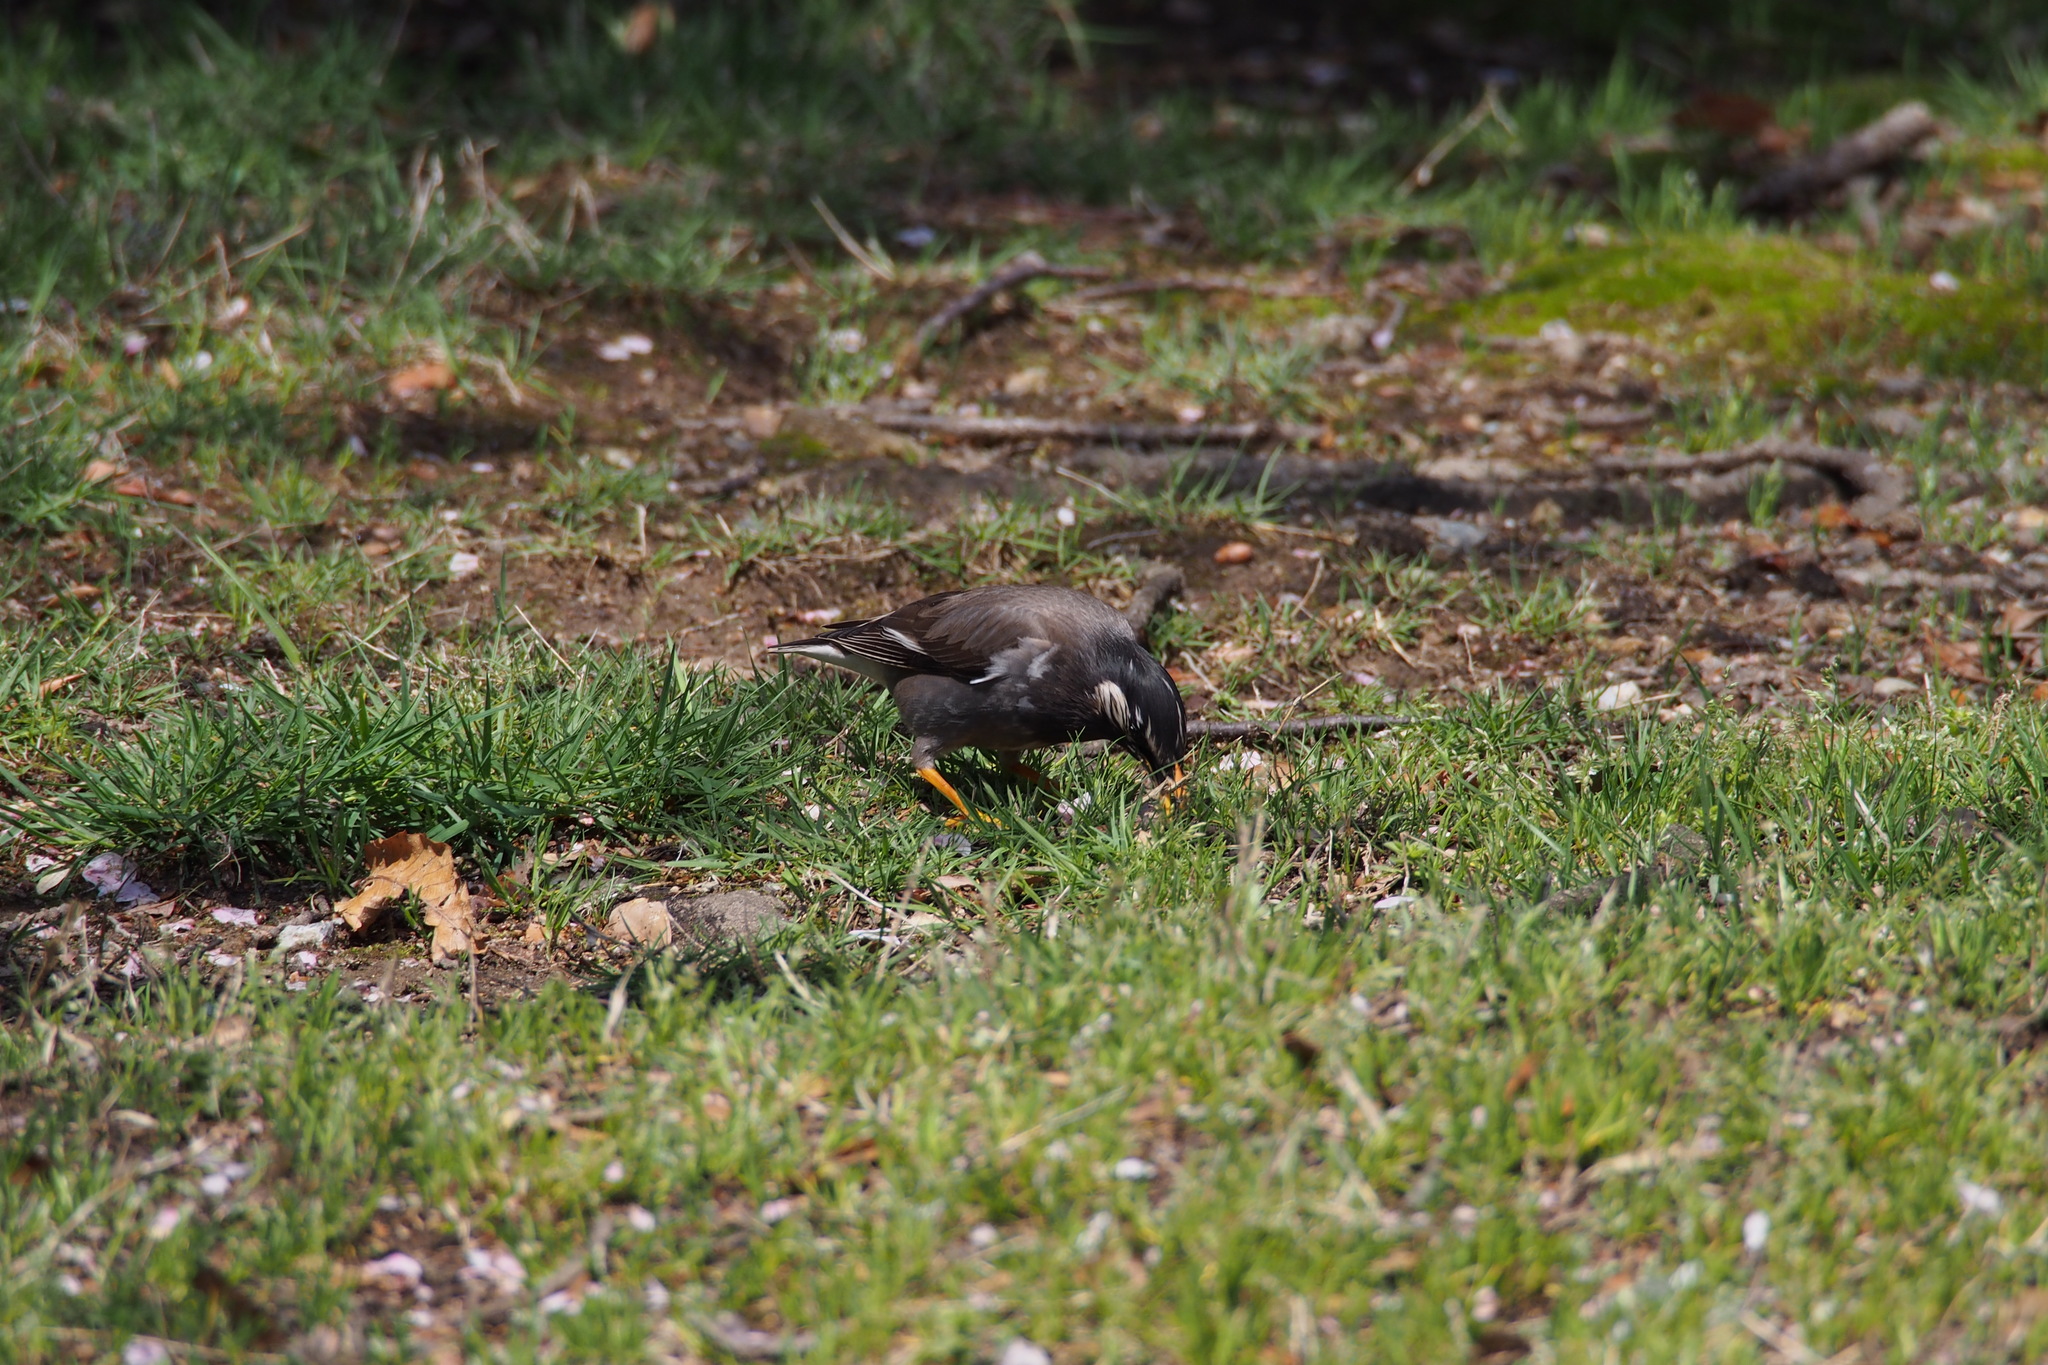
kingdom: Animalia
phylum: Chordata
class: Aves
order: Passeriformes
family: Sturnidae
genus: Spodiopsar
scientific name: Spodiopsar cineraceus
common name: White-cheeked starling
